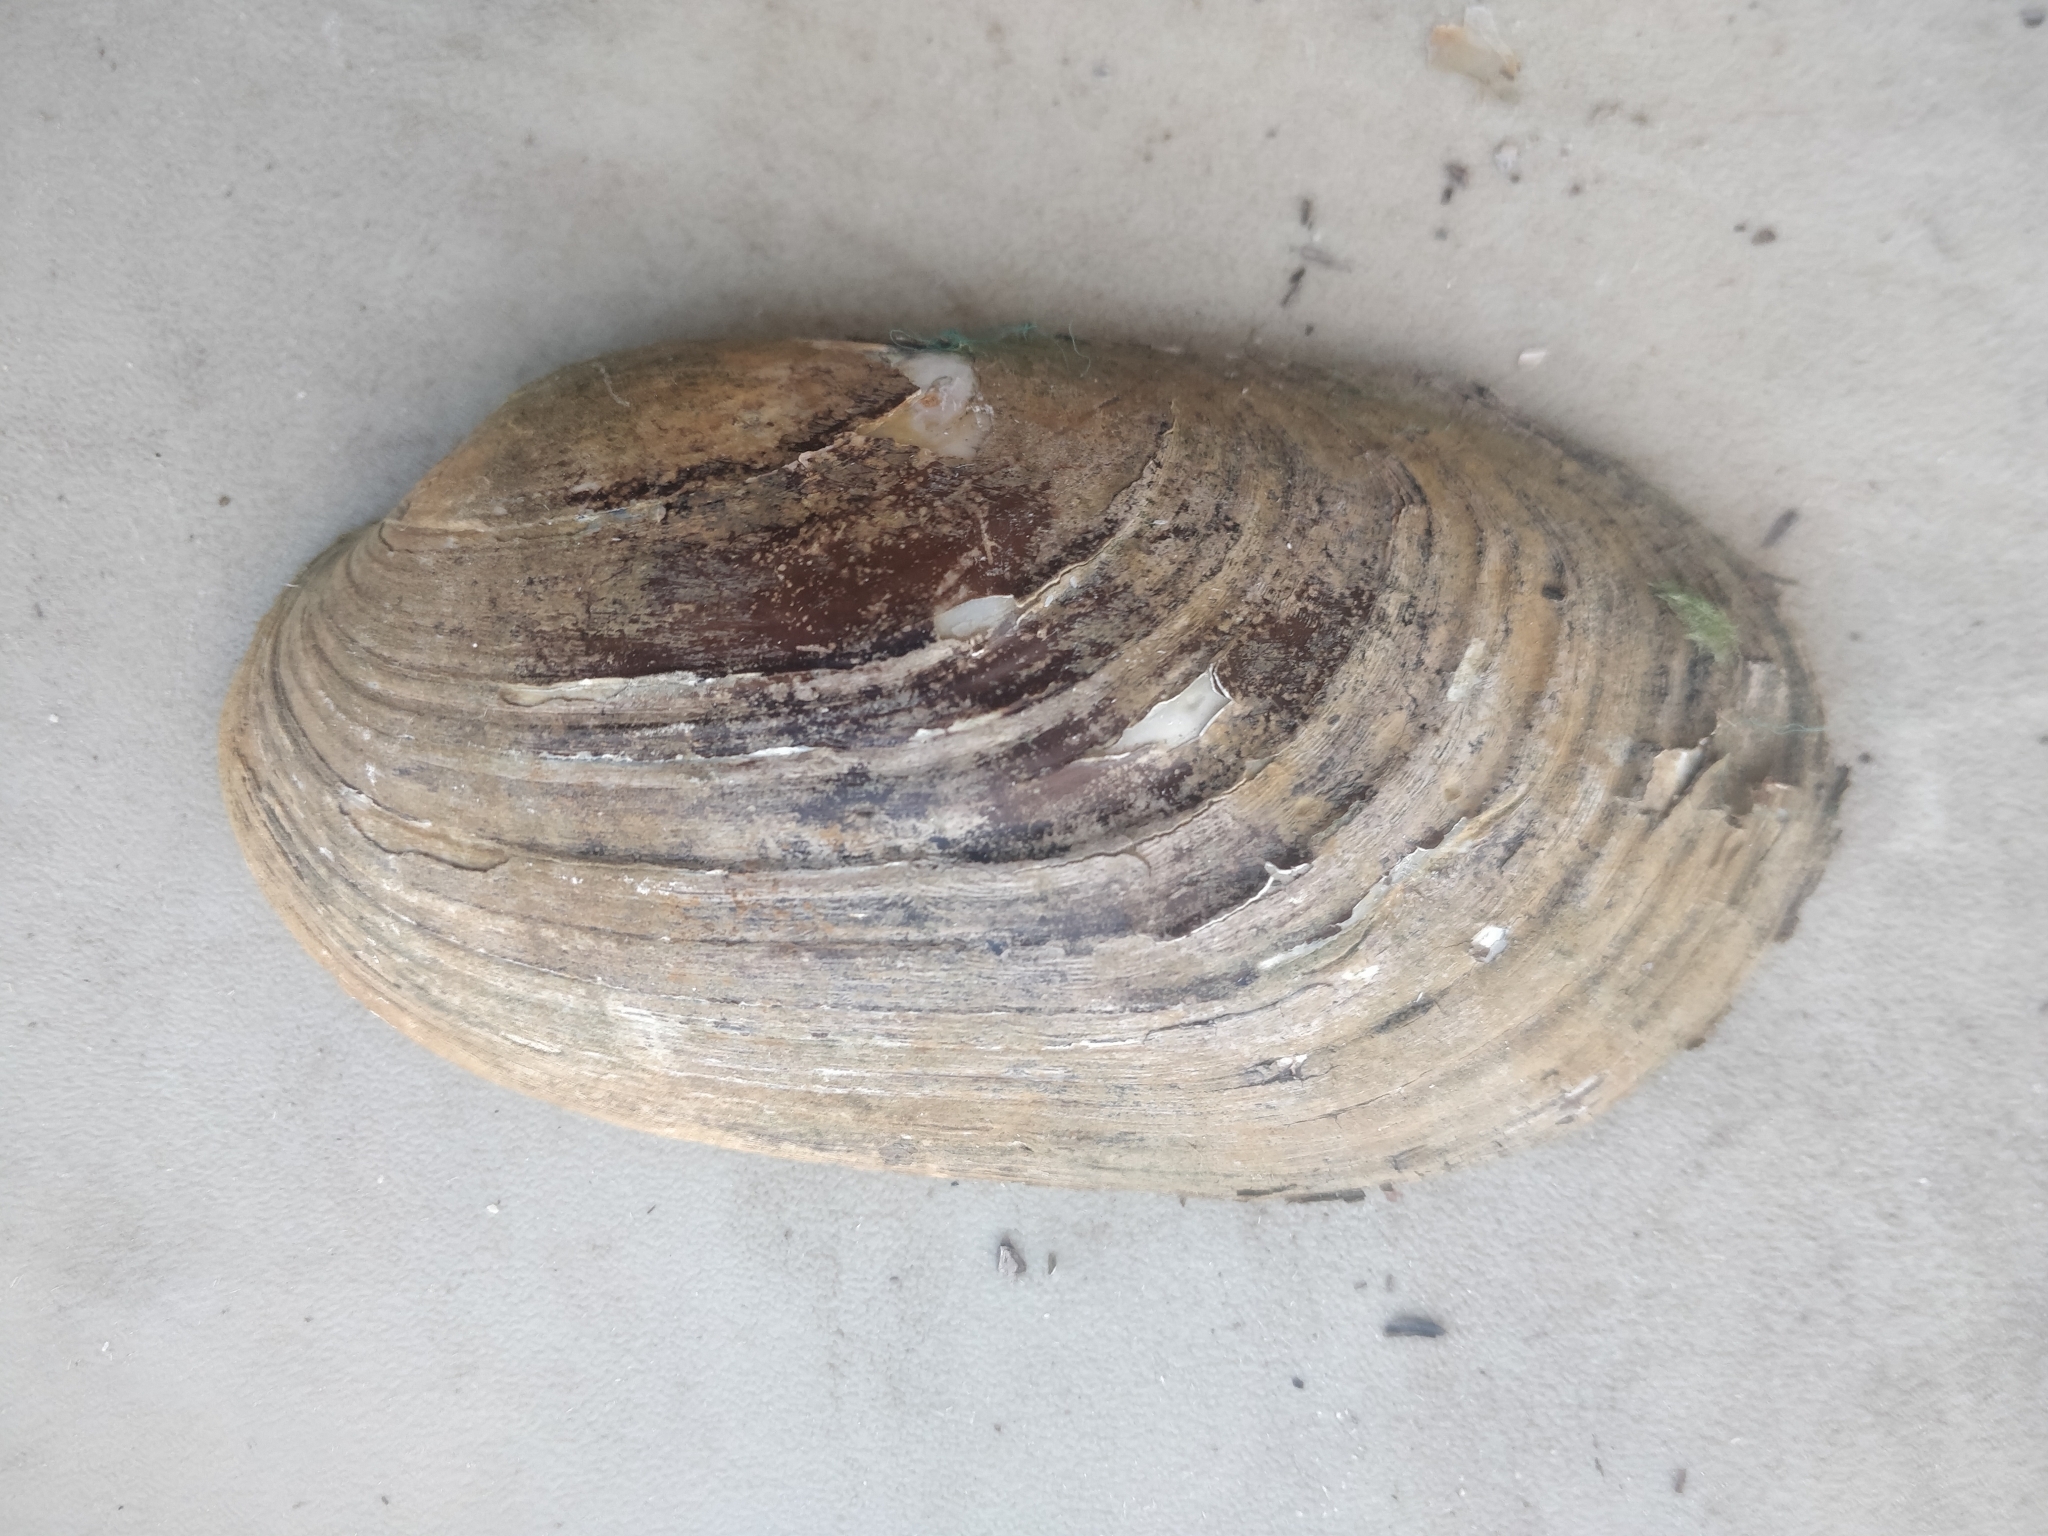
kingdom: Animalia
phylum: Mollusca
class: Bivalvia
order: Unionida
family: Unionidae
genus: Lampsilis
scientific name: Lampsilis siliquoidea
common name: Fatmucket
